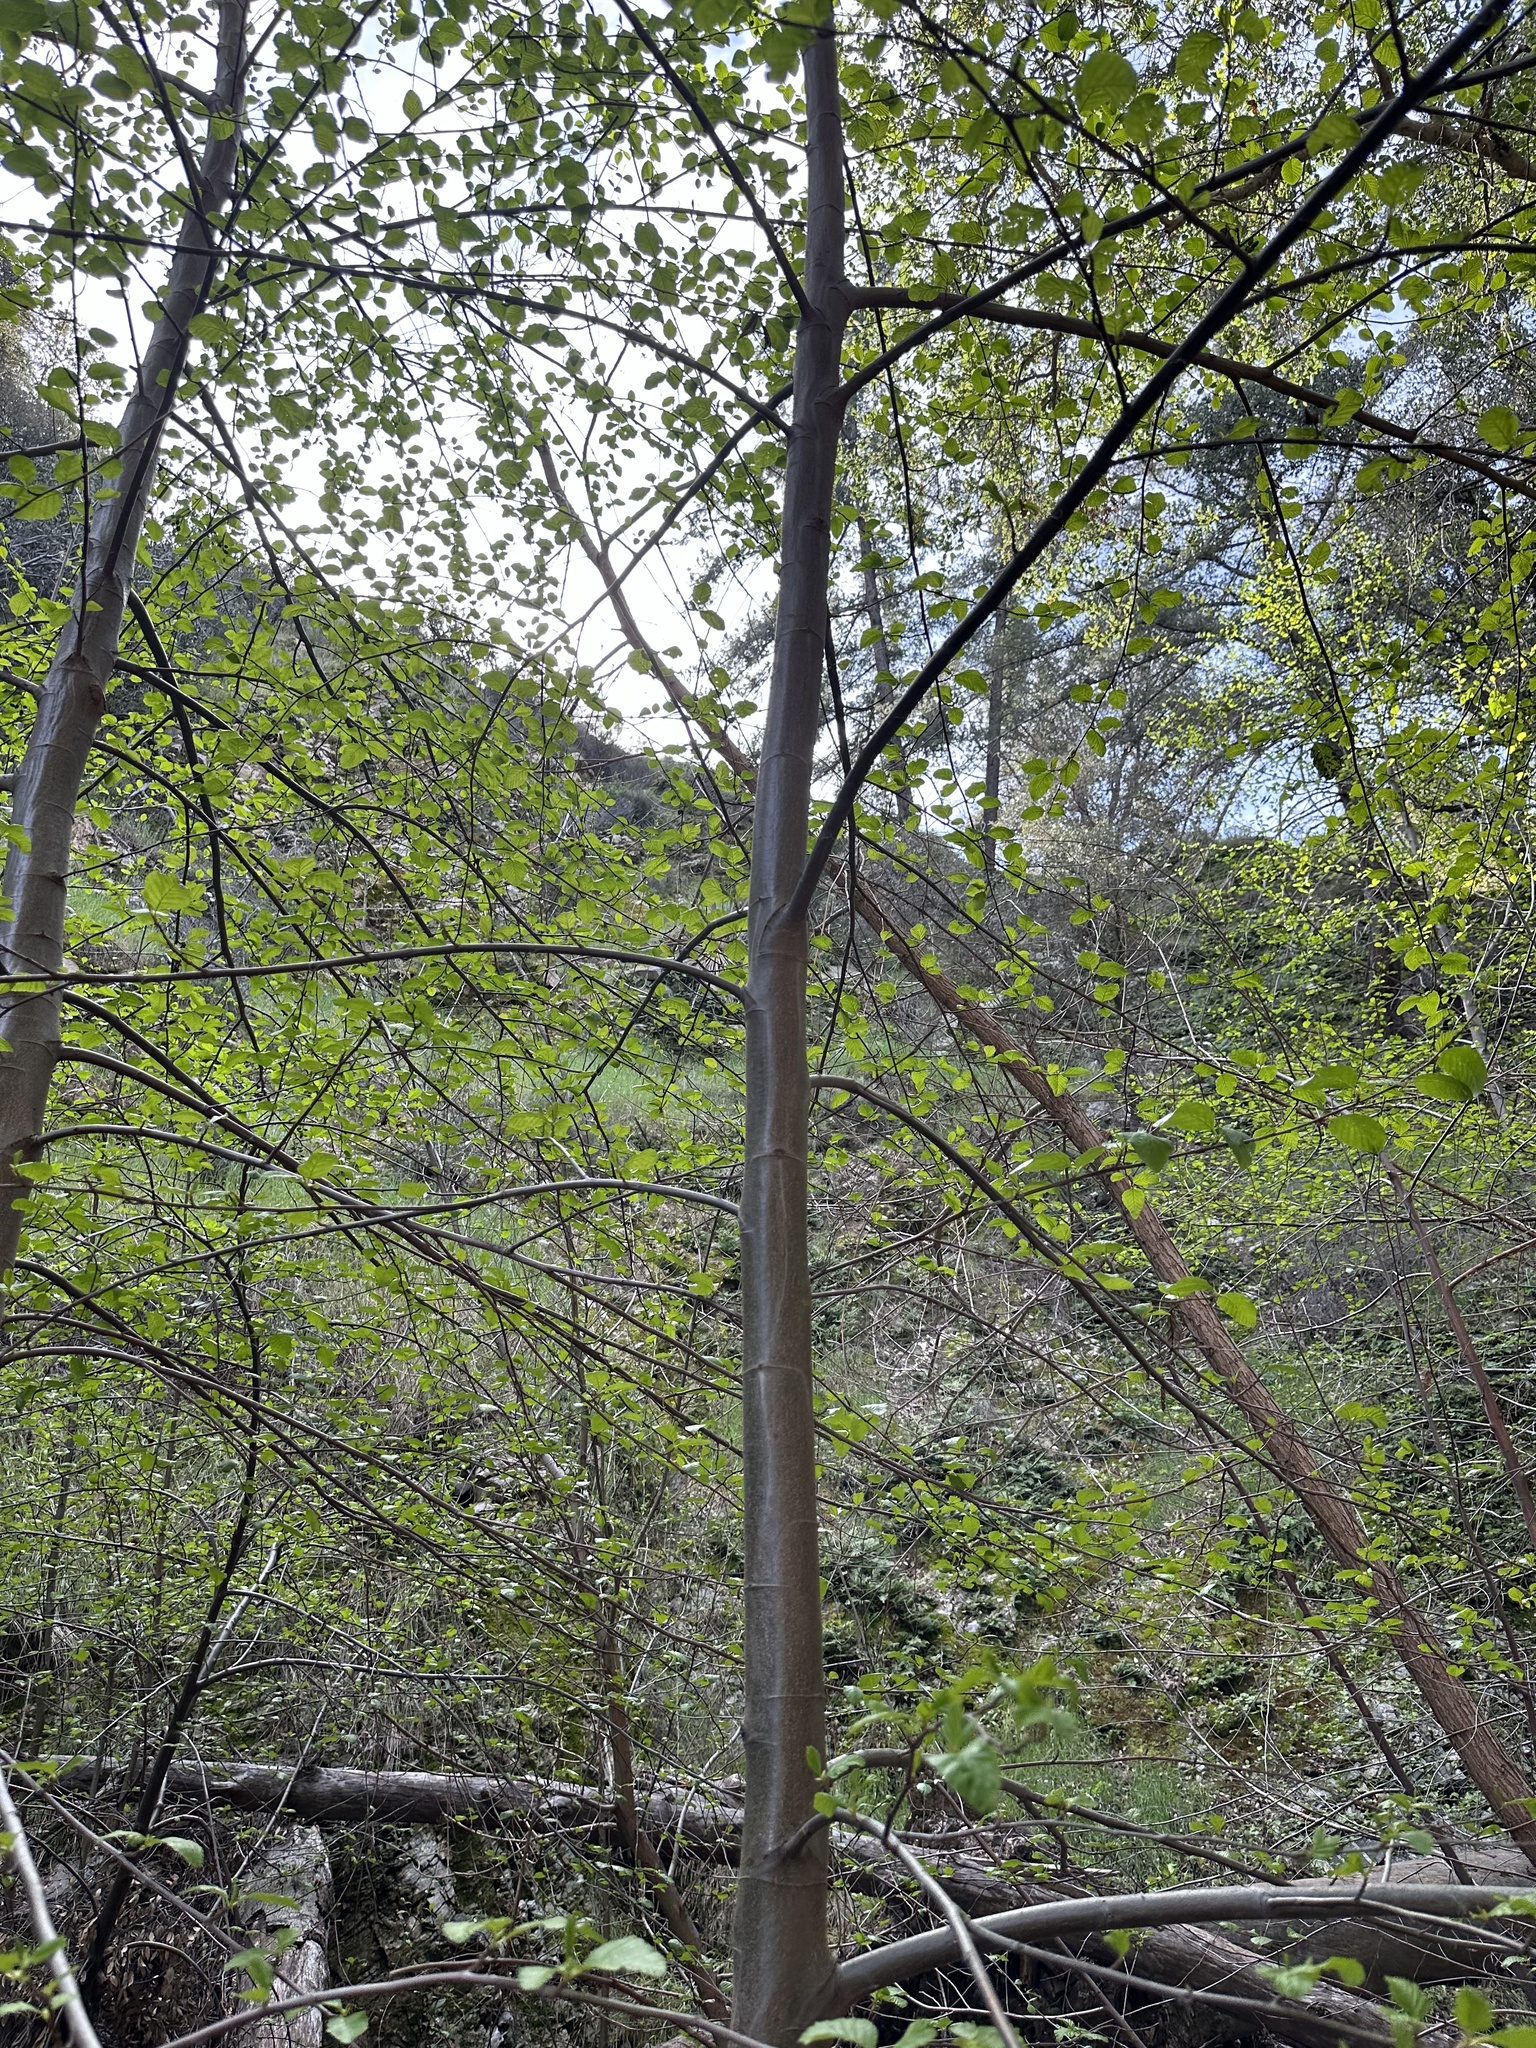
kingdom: Plantae
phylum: Tracheophyta
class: Magnoliopsida
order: Fagales
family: Betulaceae
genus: Alnus
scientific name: Alnus rhombifolia
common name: California alder
